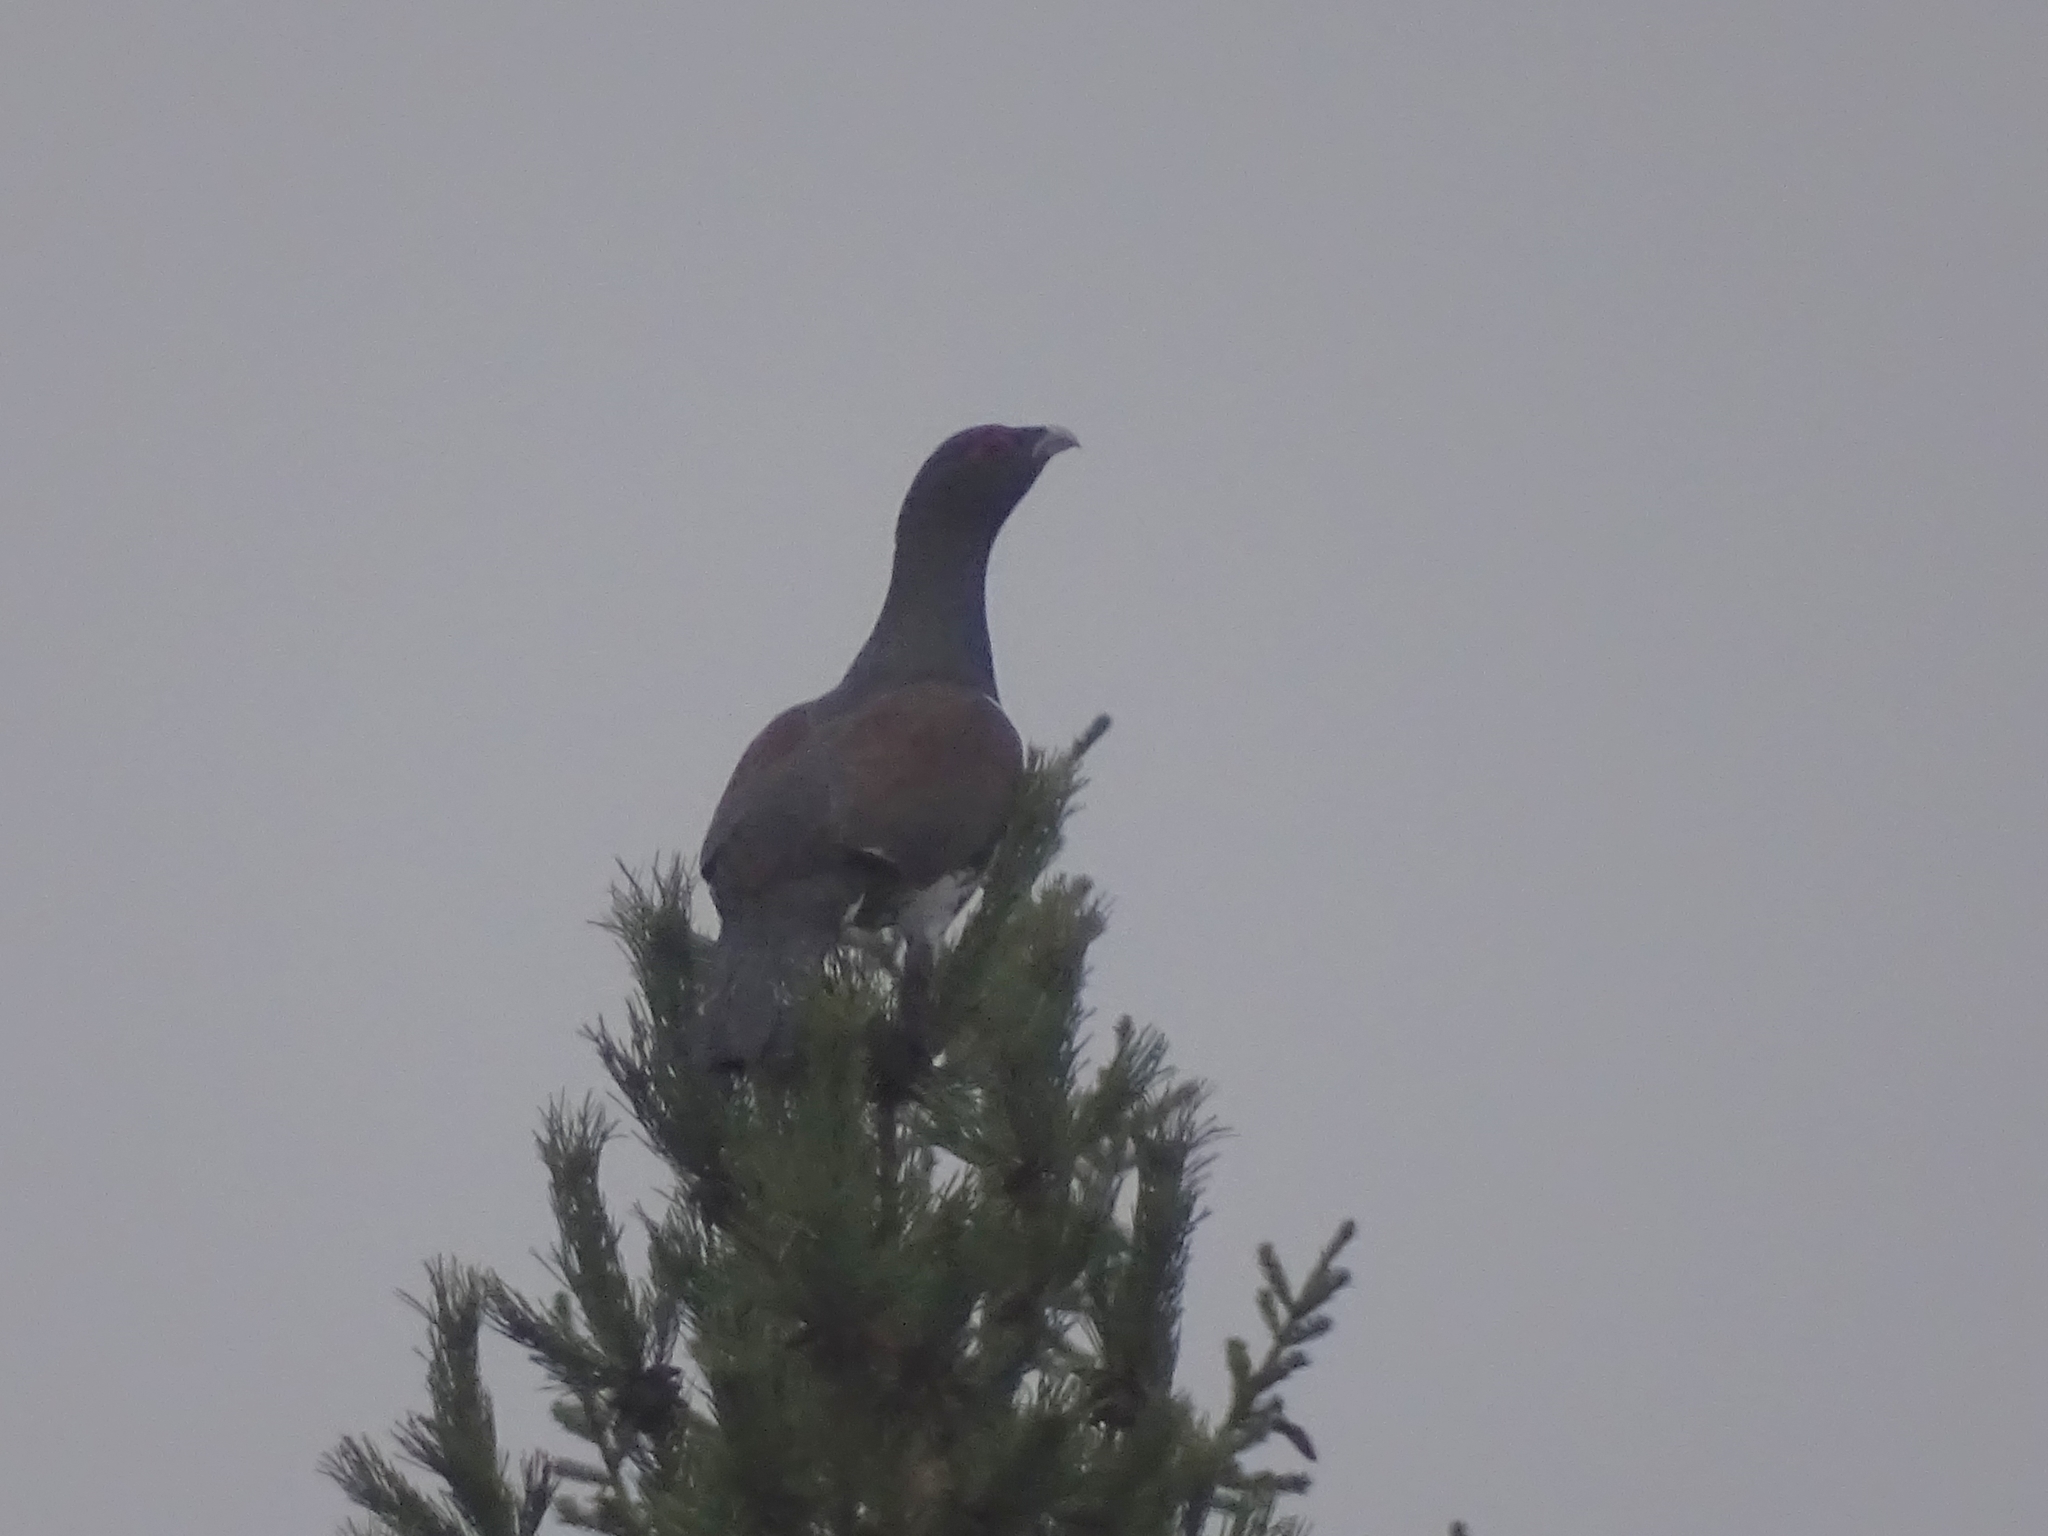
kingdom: Animalia
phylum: Chordata
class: Aves
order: Galliformes
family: Phasianidae
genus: Tetrao
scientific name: Tetrao urogallus
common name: Western capercaillie
